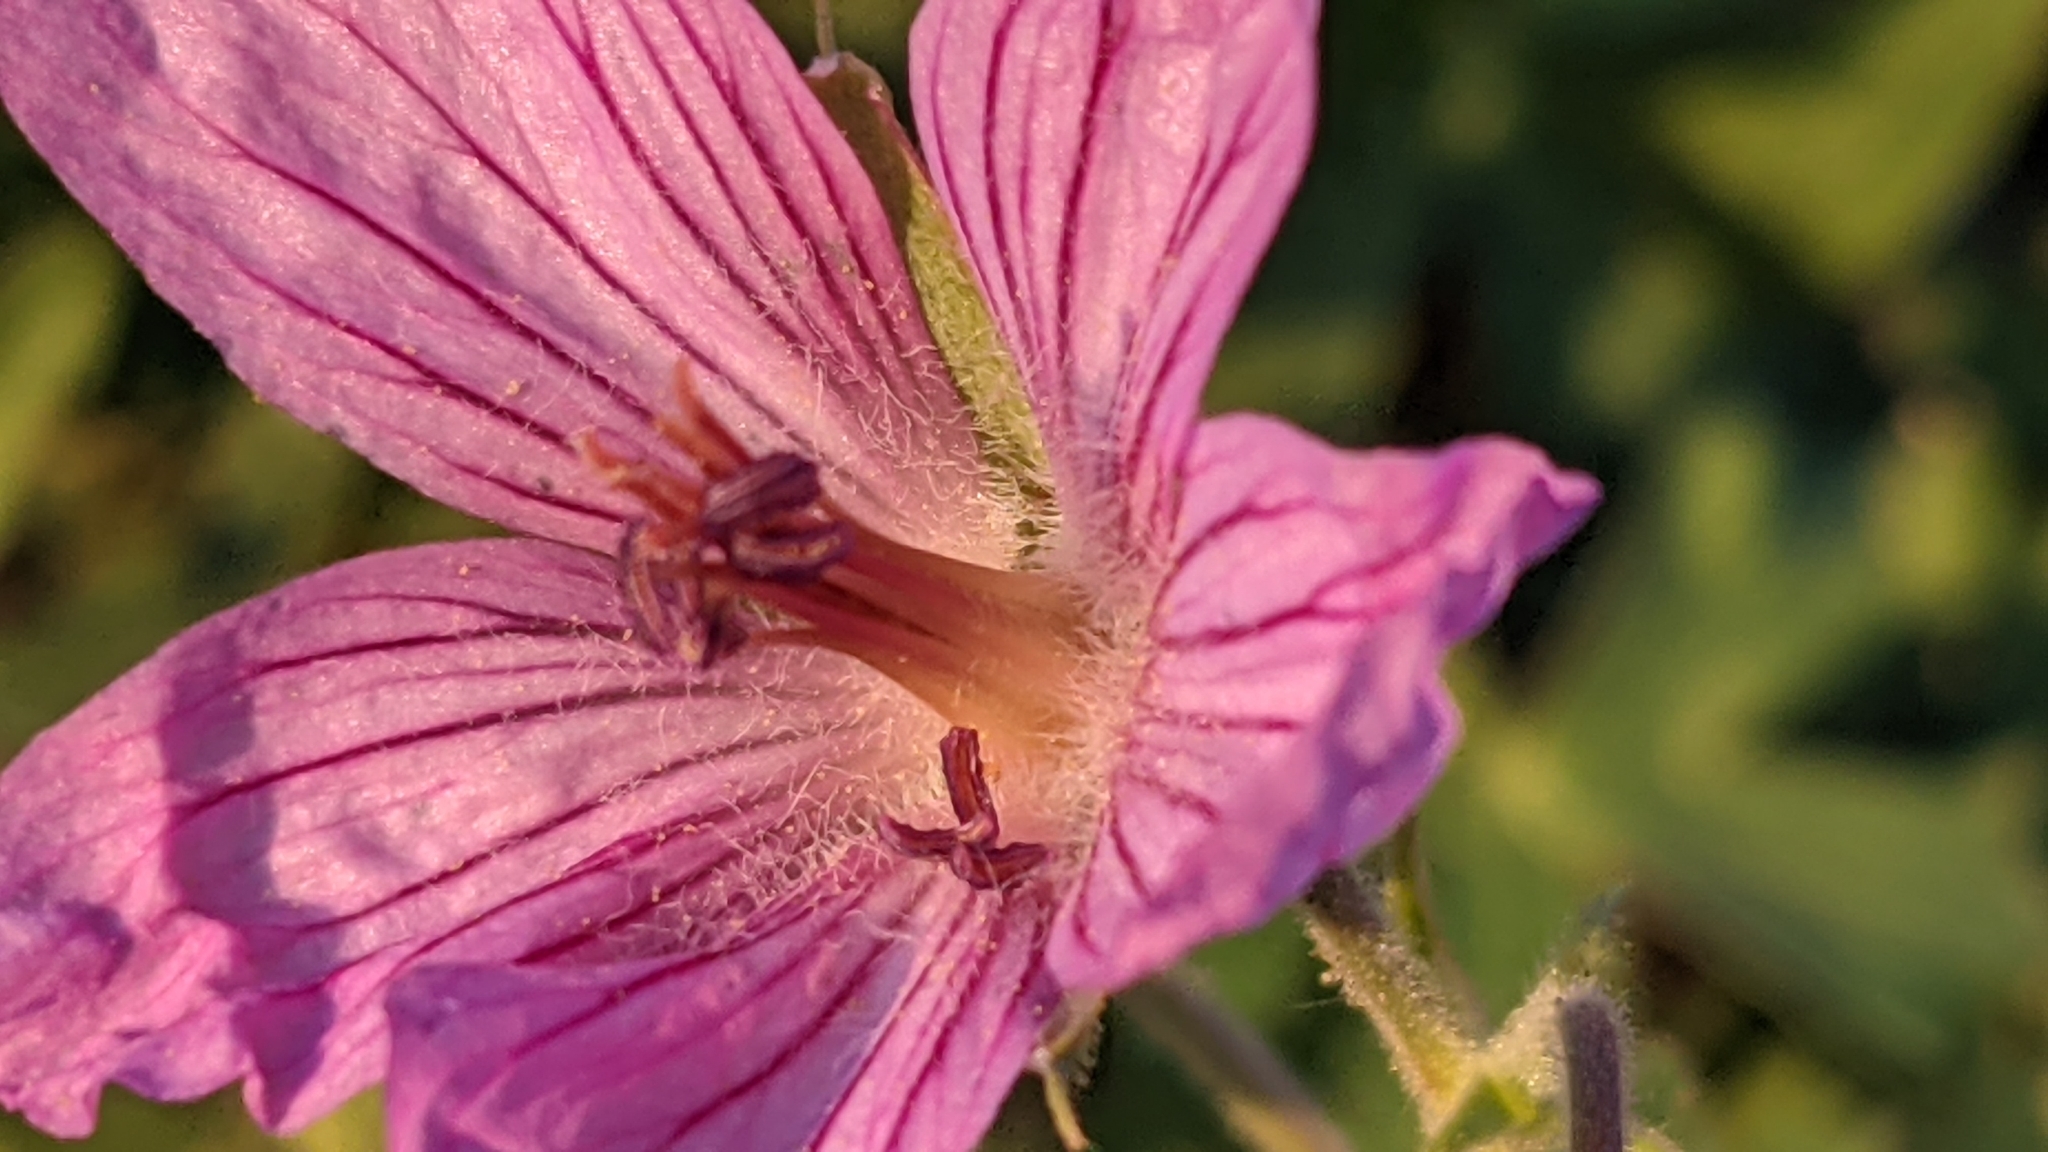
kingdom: Plantae
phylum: Tracheophyta
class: Magnoliopsida
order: Geraniales
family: Geraniaceae
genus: Geranium
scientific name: Geranium viscosissimum
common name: Purple geranium
